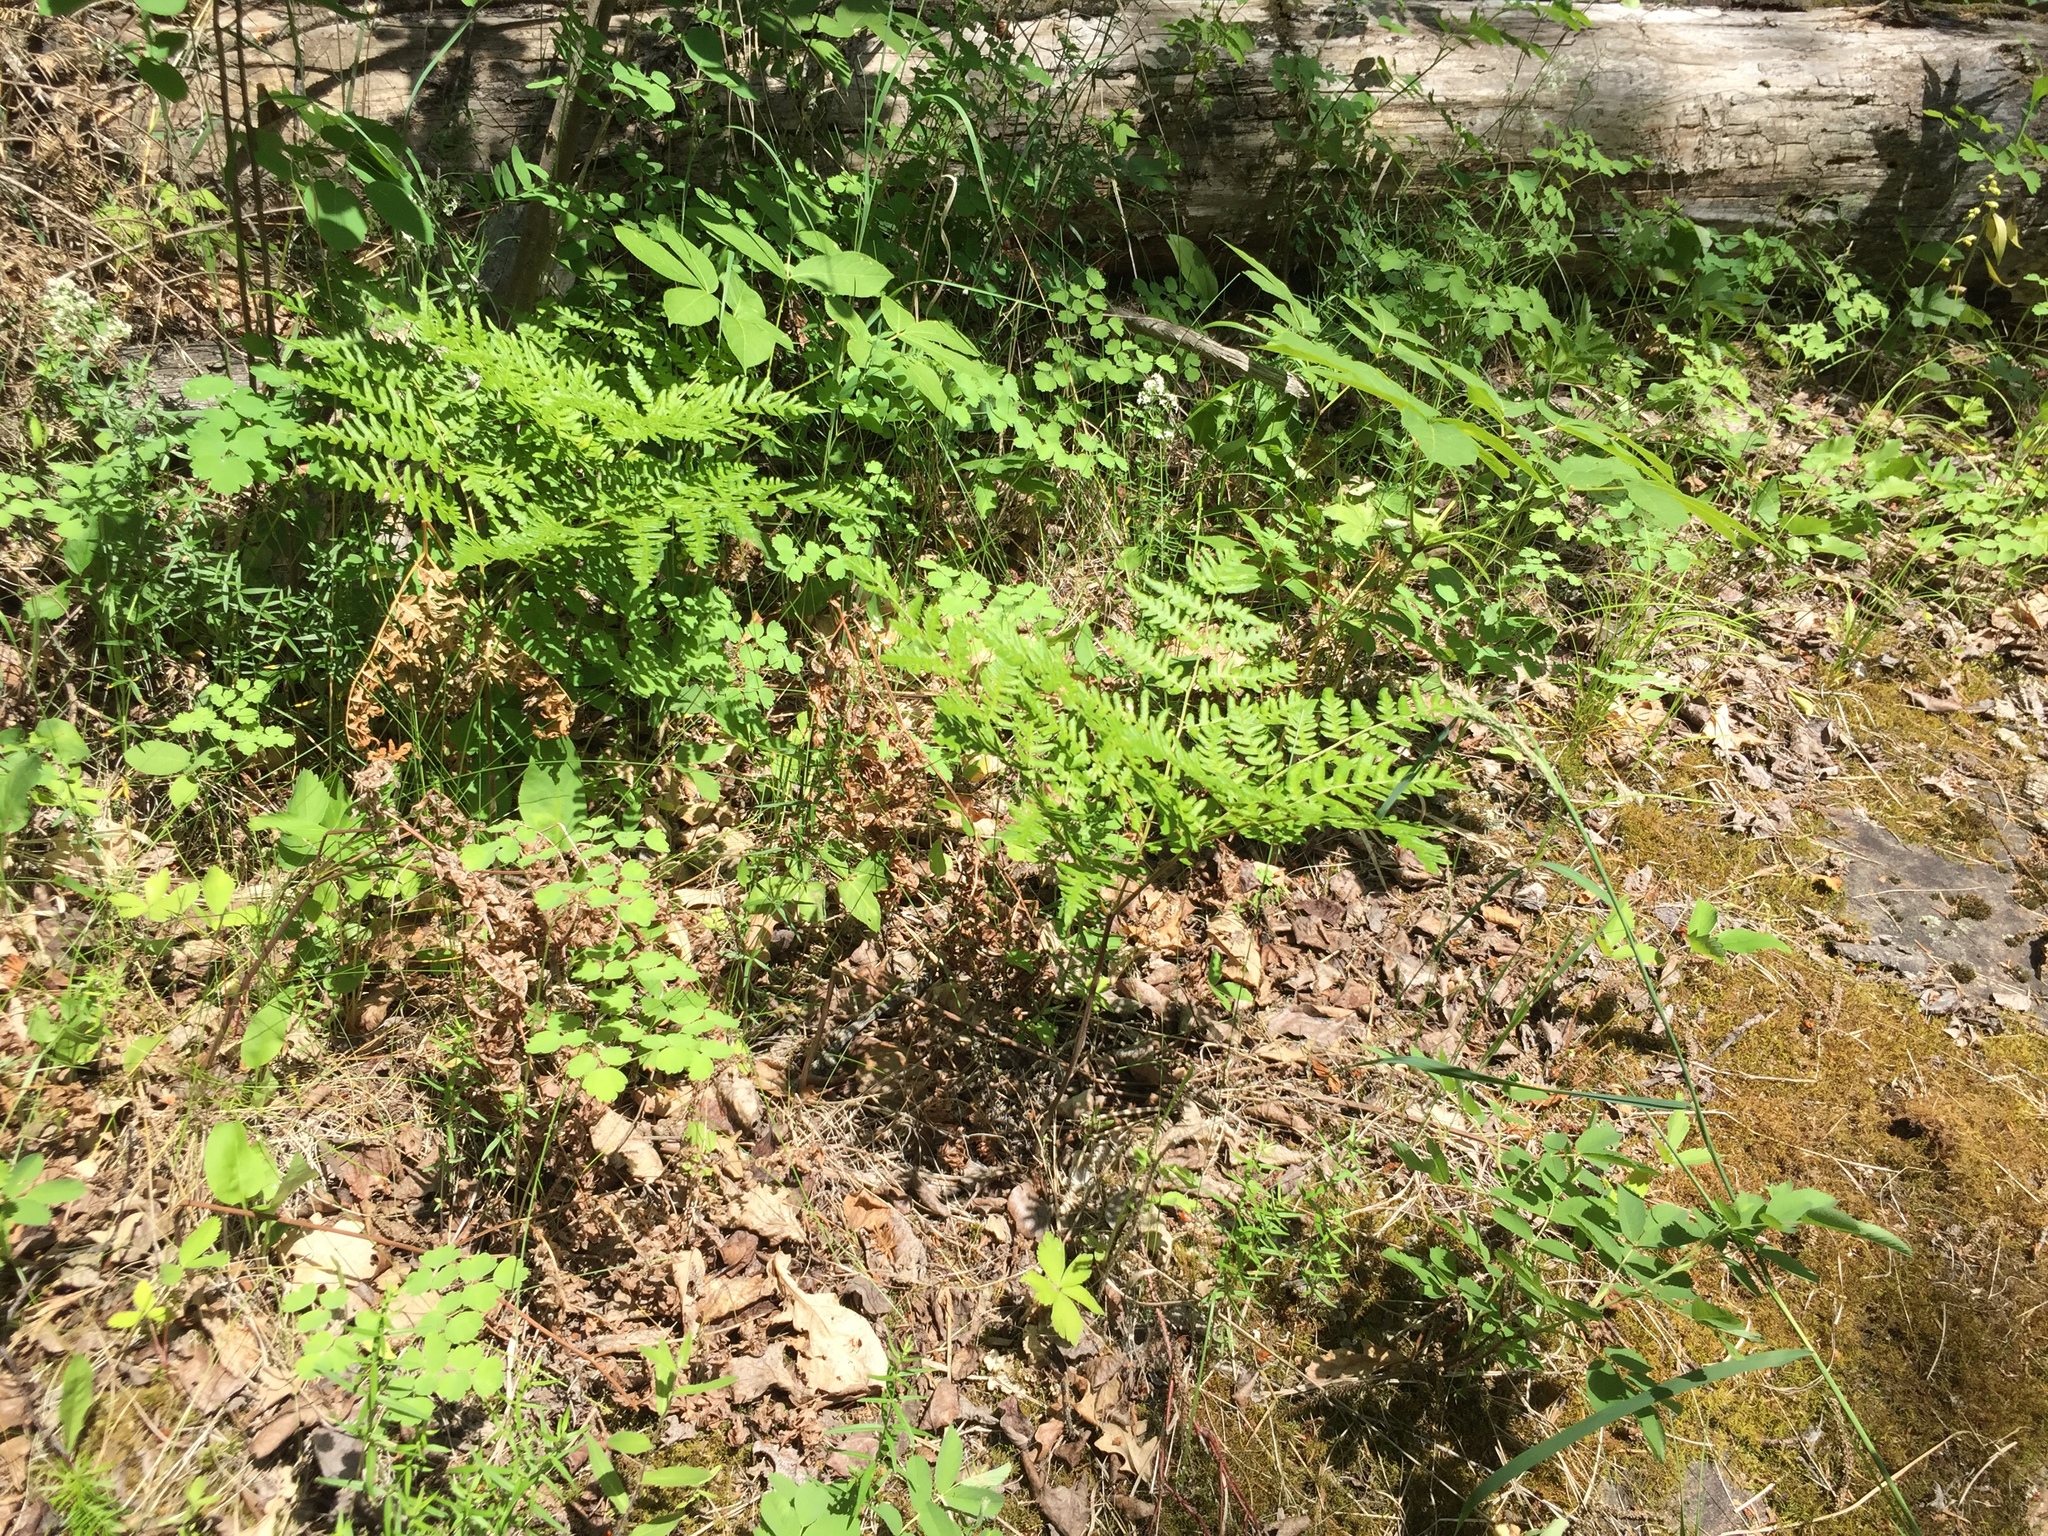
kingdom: Plantae
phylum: Tracheophyta
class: Polypodiopsida
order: Polypodiales
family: Dennstaedtiaceae
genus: Pteridium
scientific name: Pteridium aquilinum
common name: Bracken
